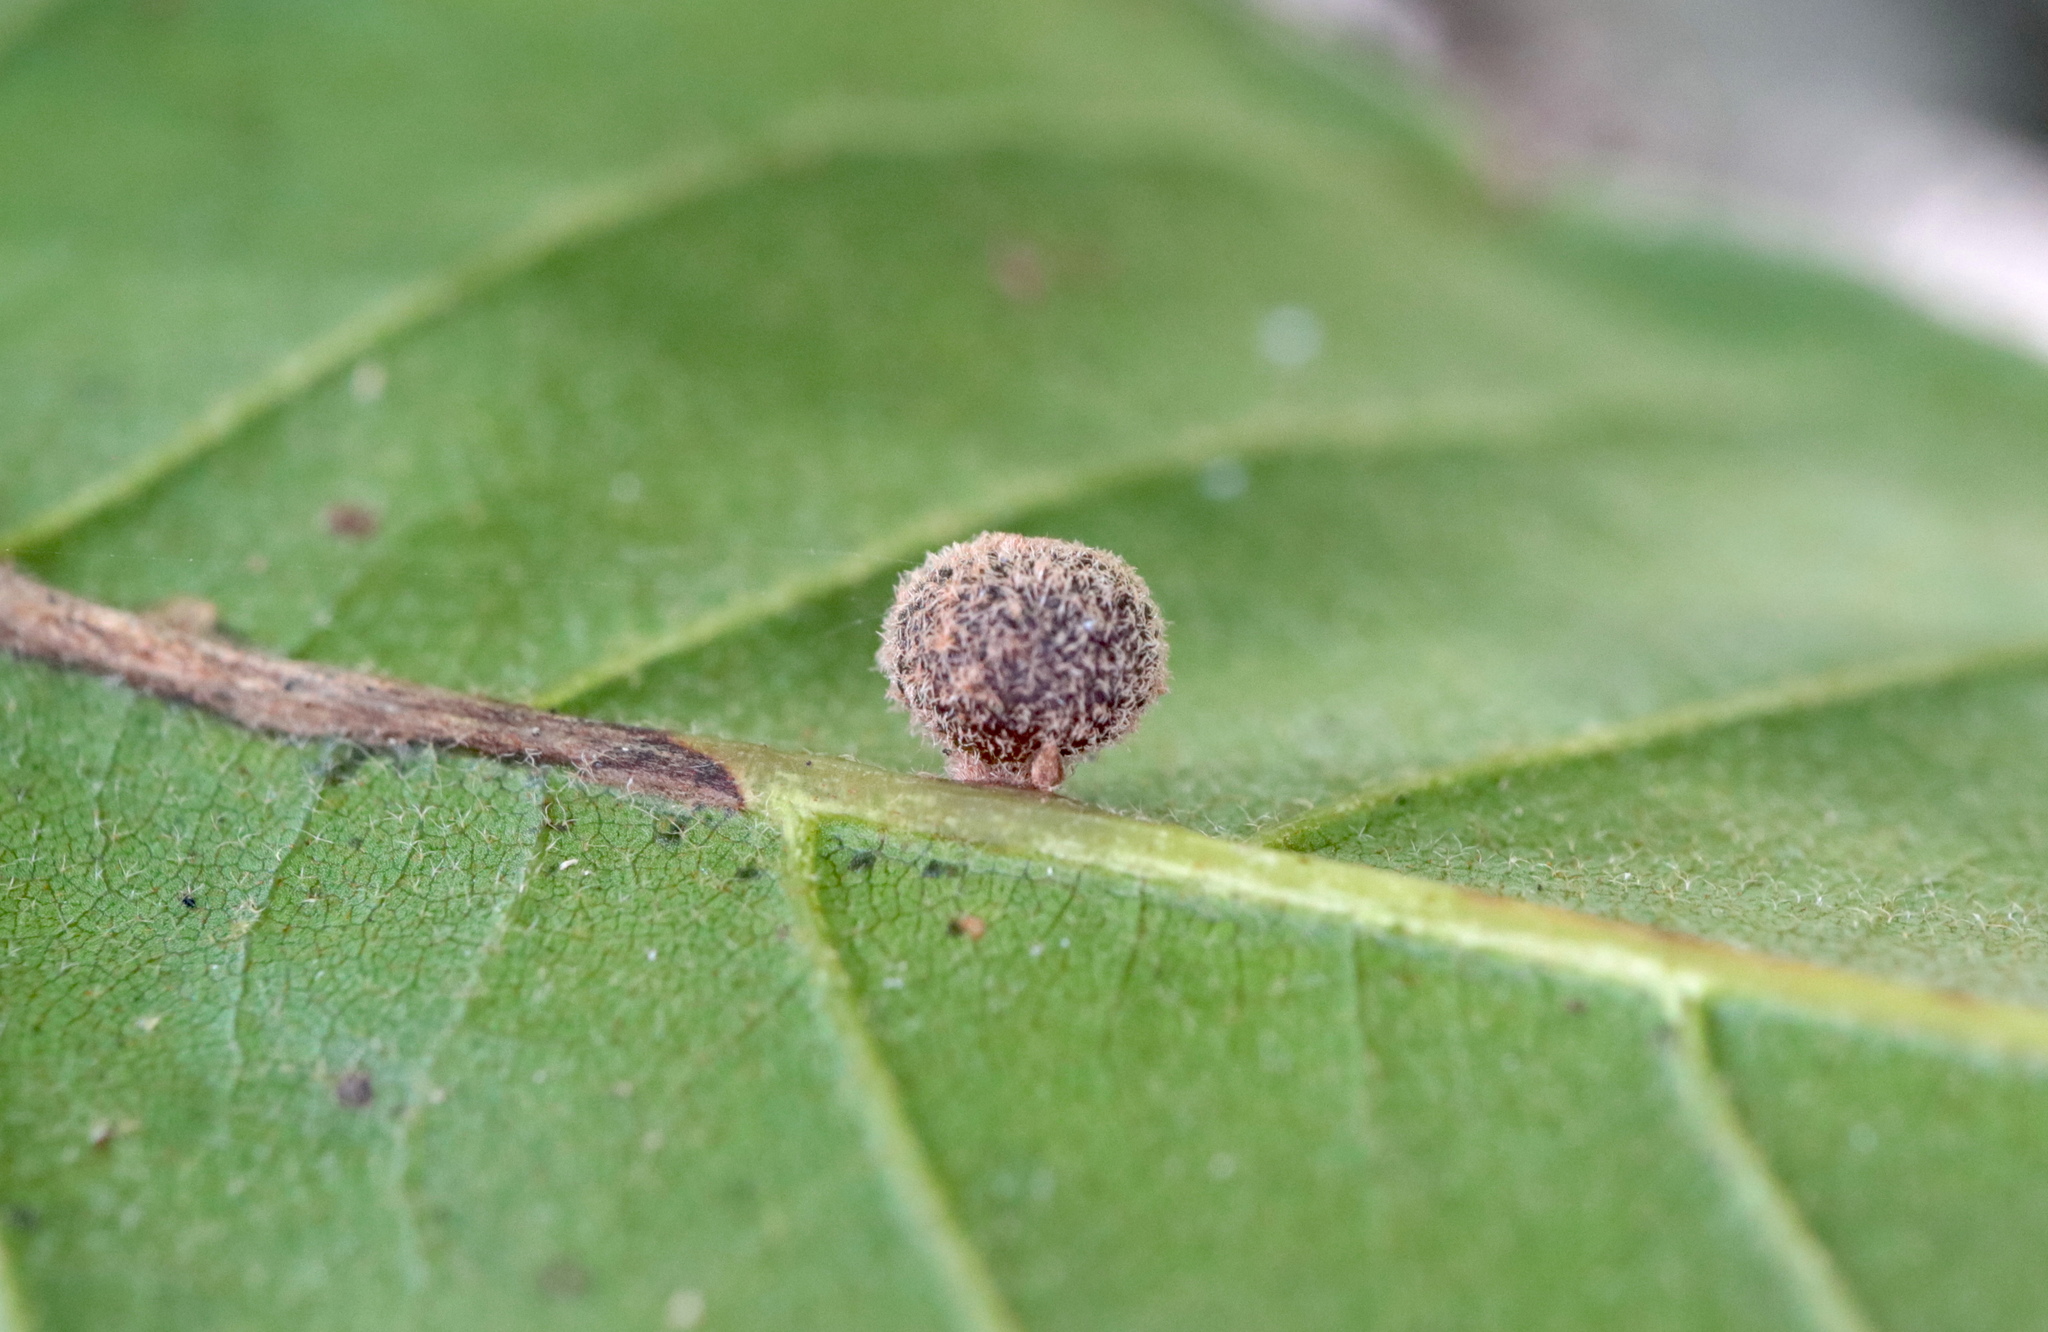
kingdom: Animalia
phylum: Arthropoda
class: Insecta
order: Hymenoptera
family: Cynipidae
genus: Callirhytis
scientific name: Callirhytis
